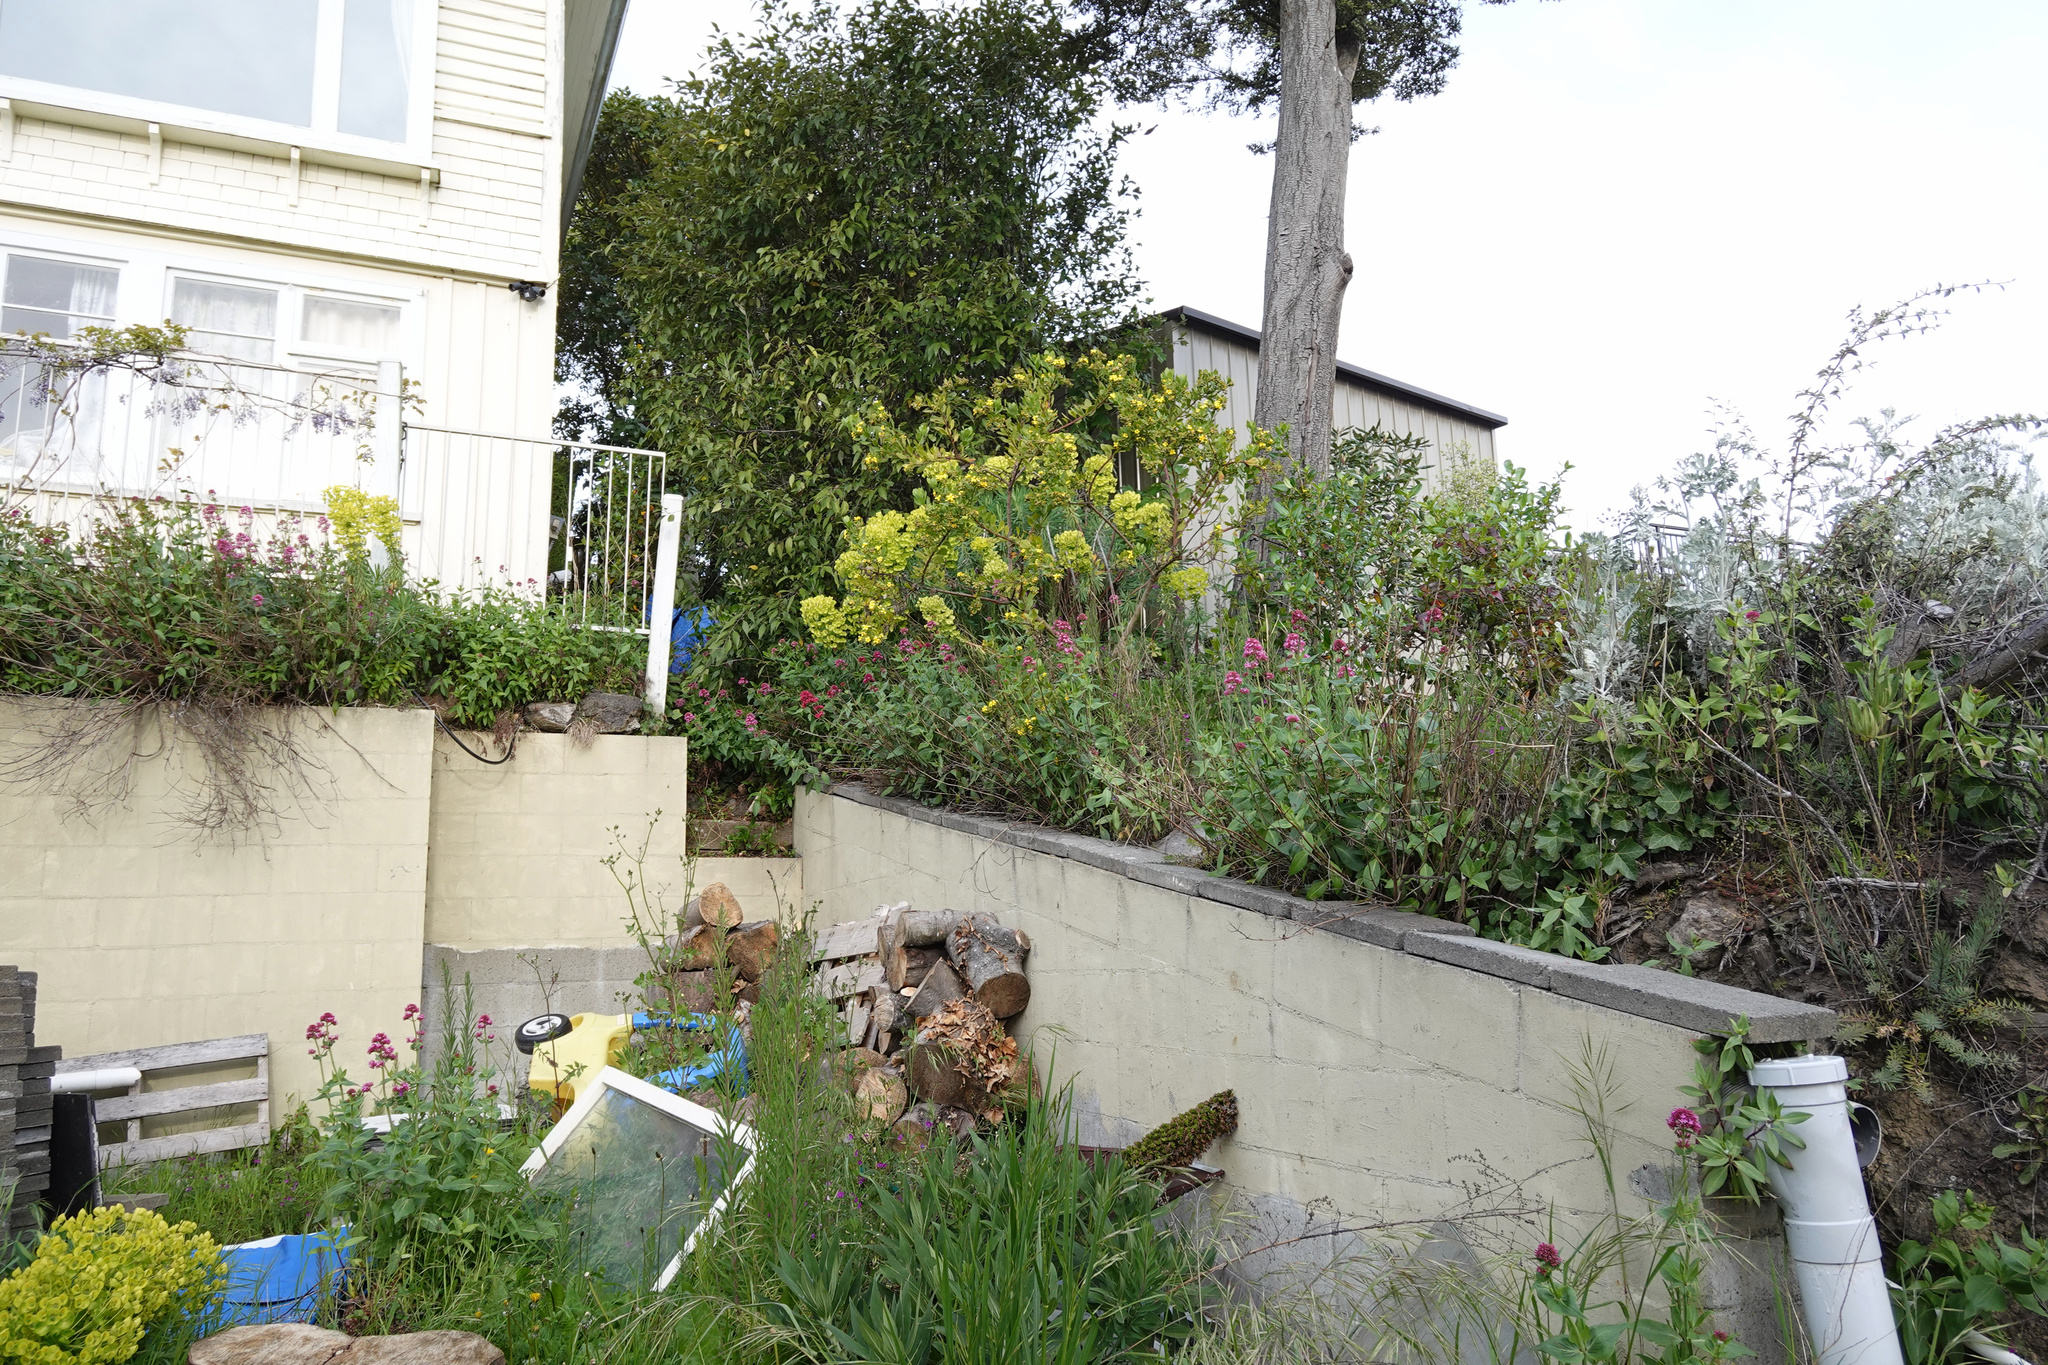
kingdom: Plantae
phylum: Tracheophyta
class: Magnoliopsida
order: Asterales
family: Asteraceae
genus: Osteospermum
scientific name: Osteospermum moniliferum
